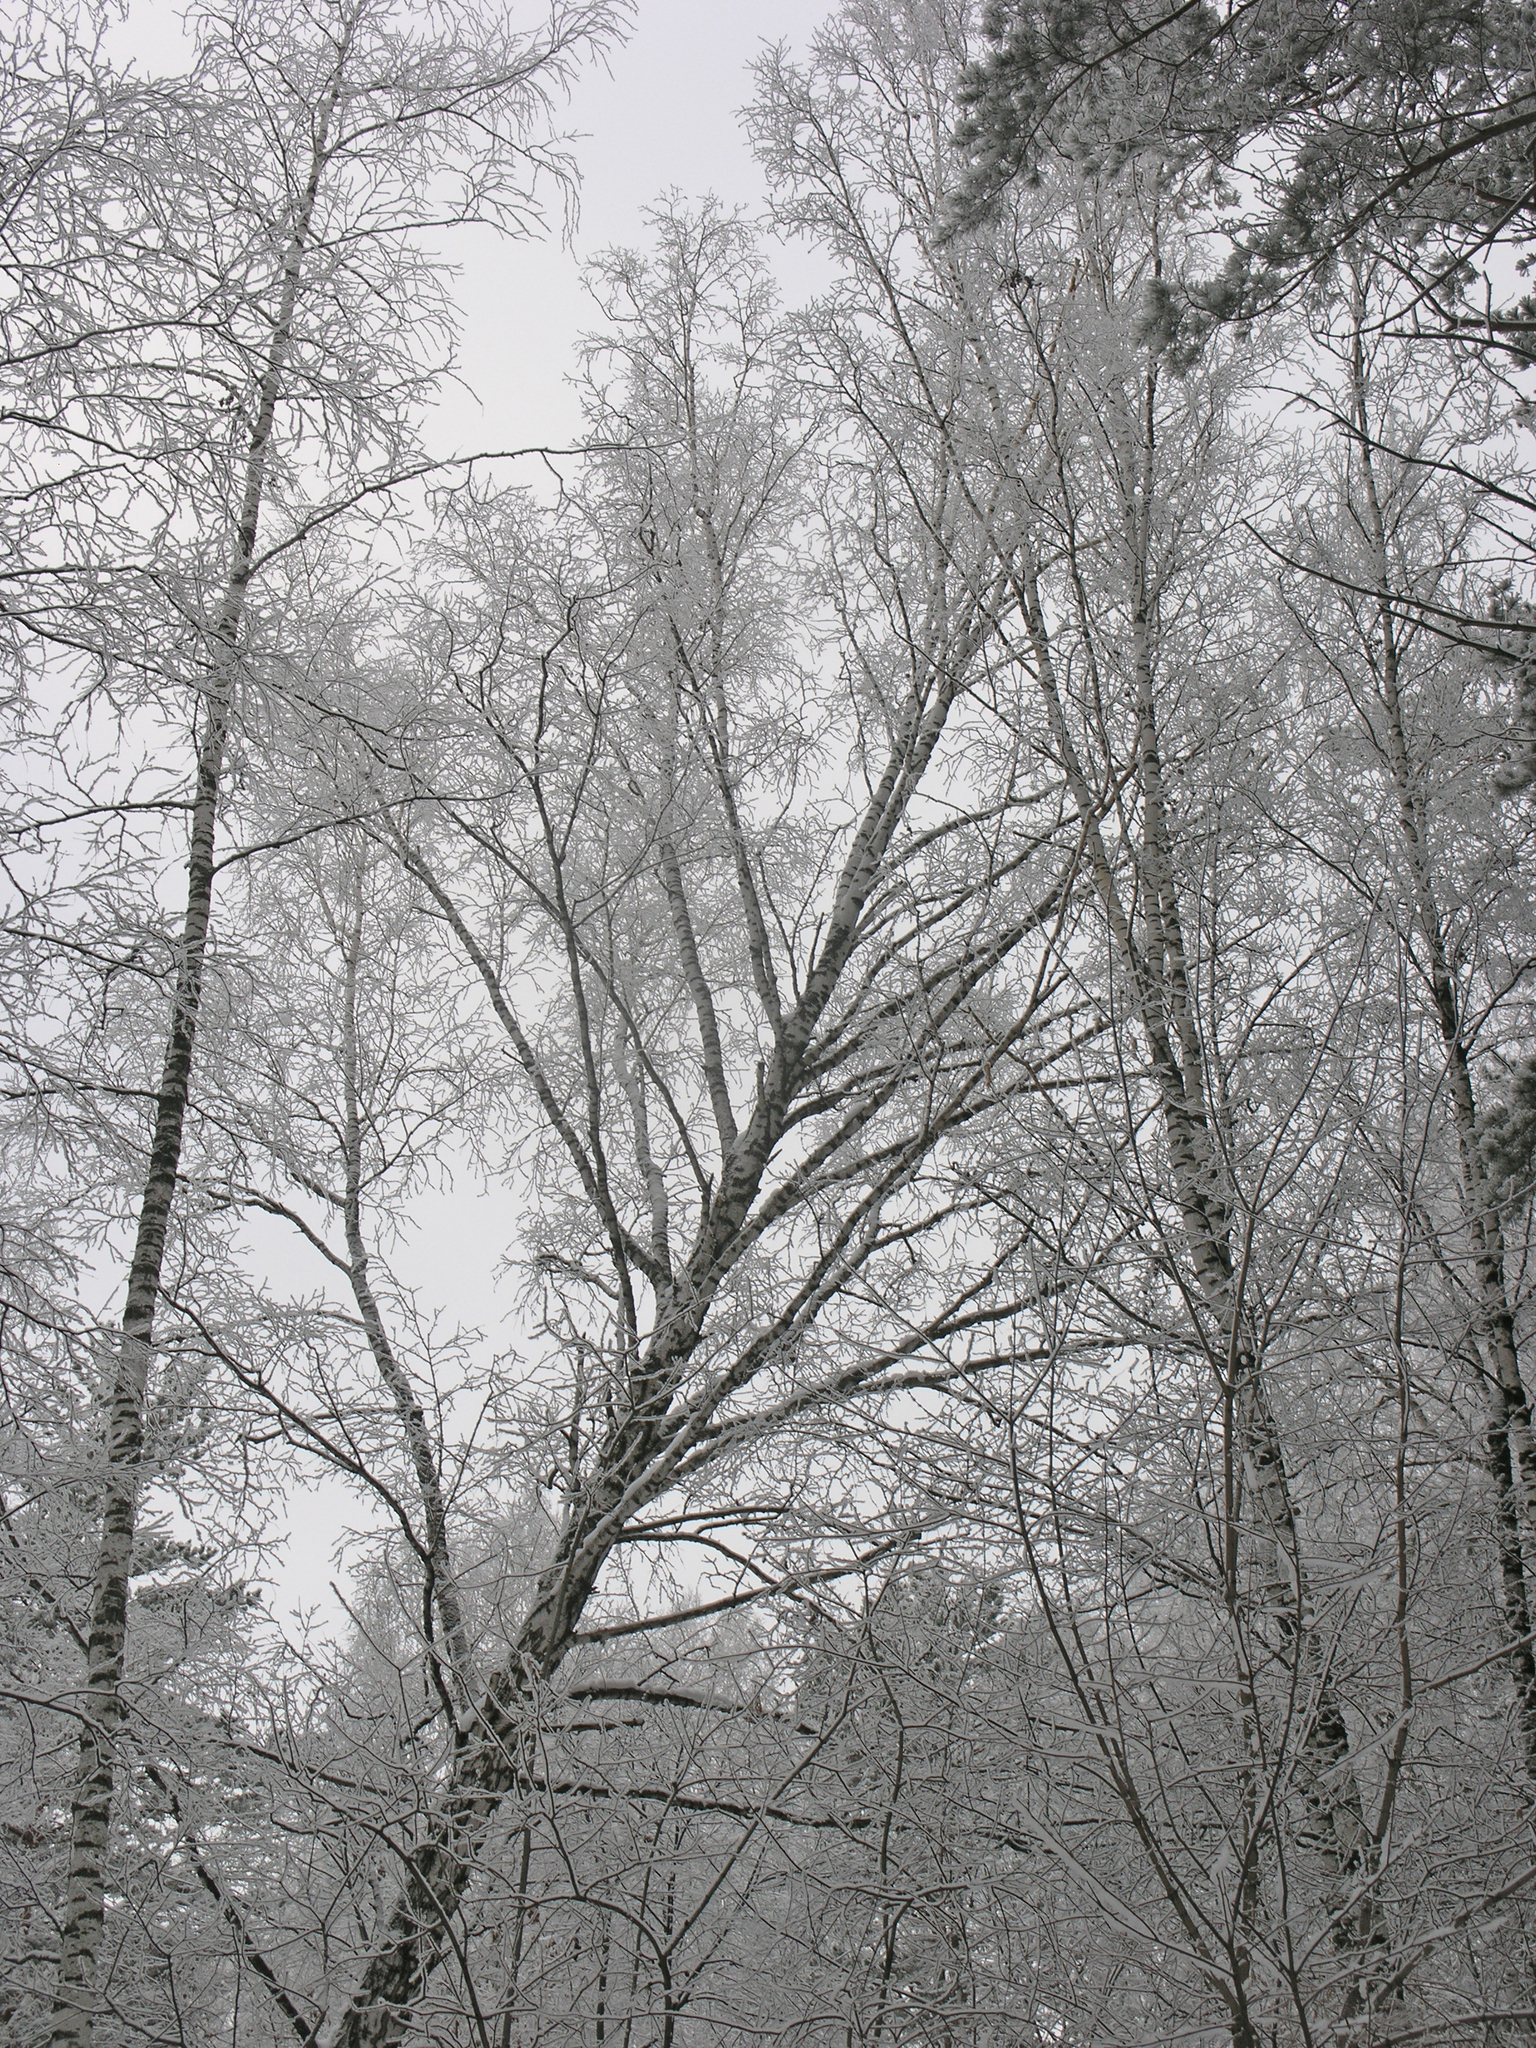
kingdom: Plantae
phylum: Tracheophyta
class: Magnoliopsida
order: Fagales
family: Betulaceae
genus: Betula
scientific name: Betula pendula
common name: Silver birch
